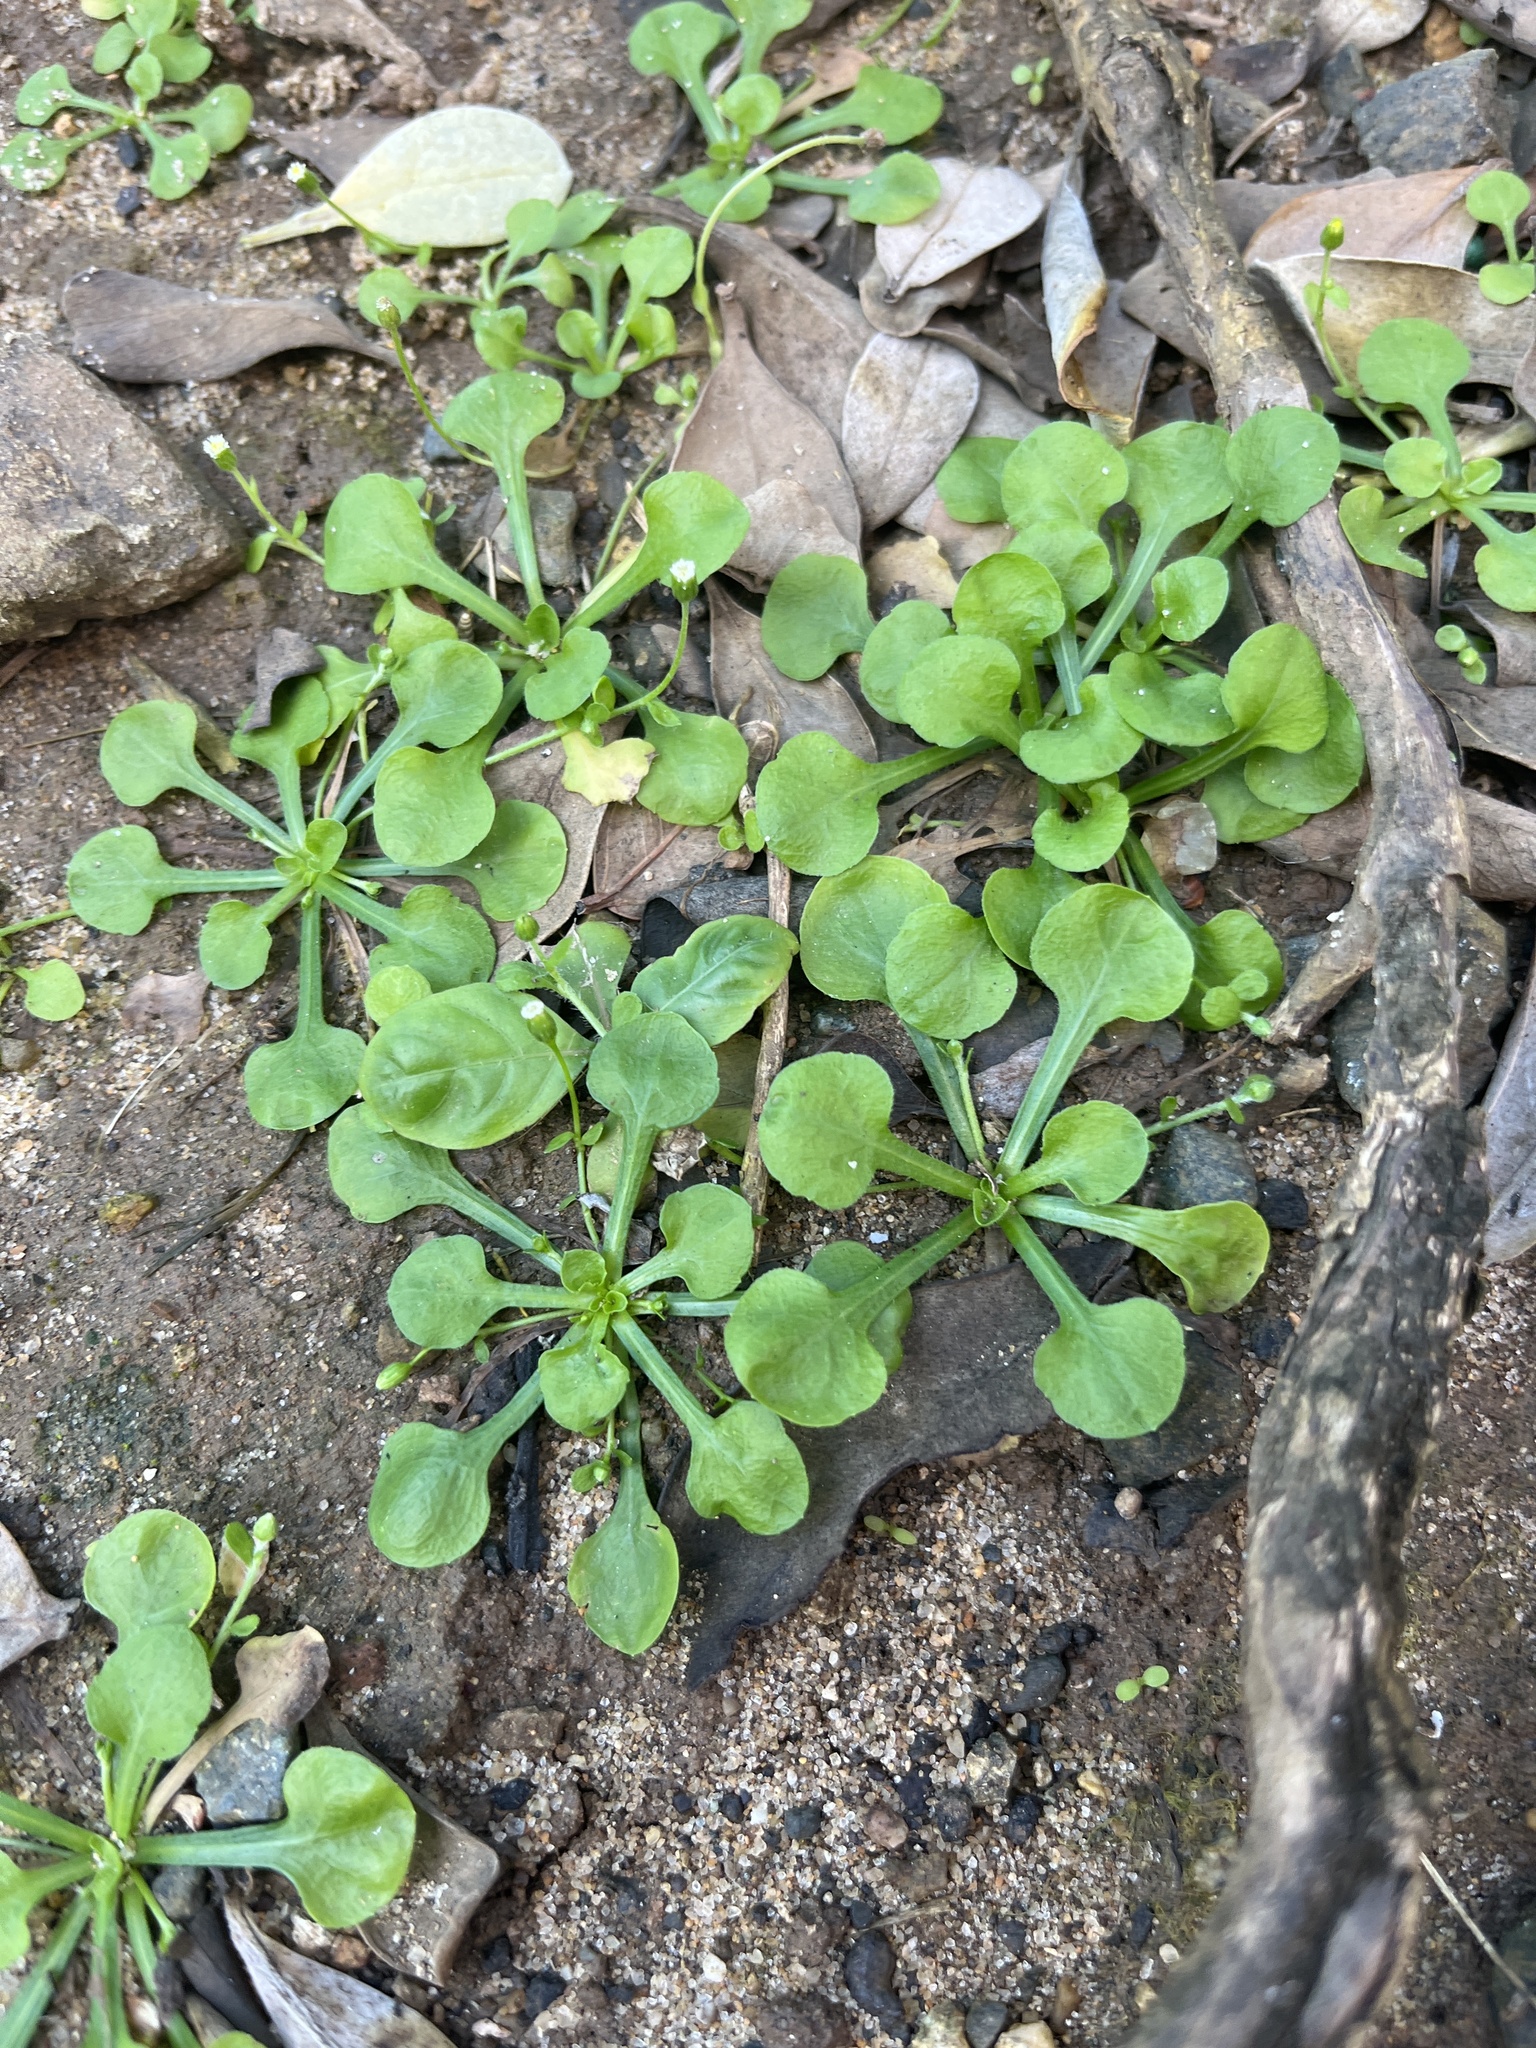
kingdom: Plantae
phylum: Tracheophyta
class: Magnoliopsida
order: Asterales
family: Asteraceae
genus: Erigeron
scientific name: Erigeron bellioides
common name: Bellorita
